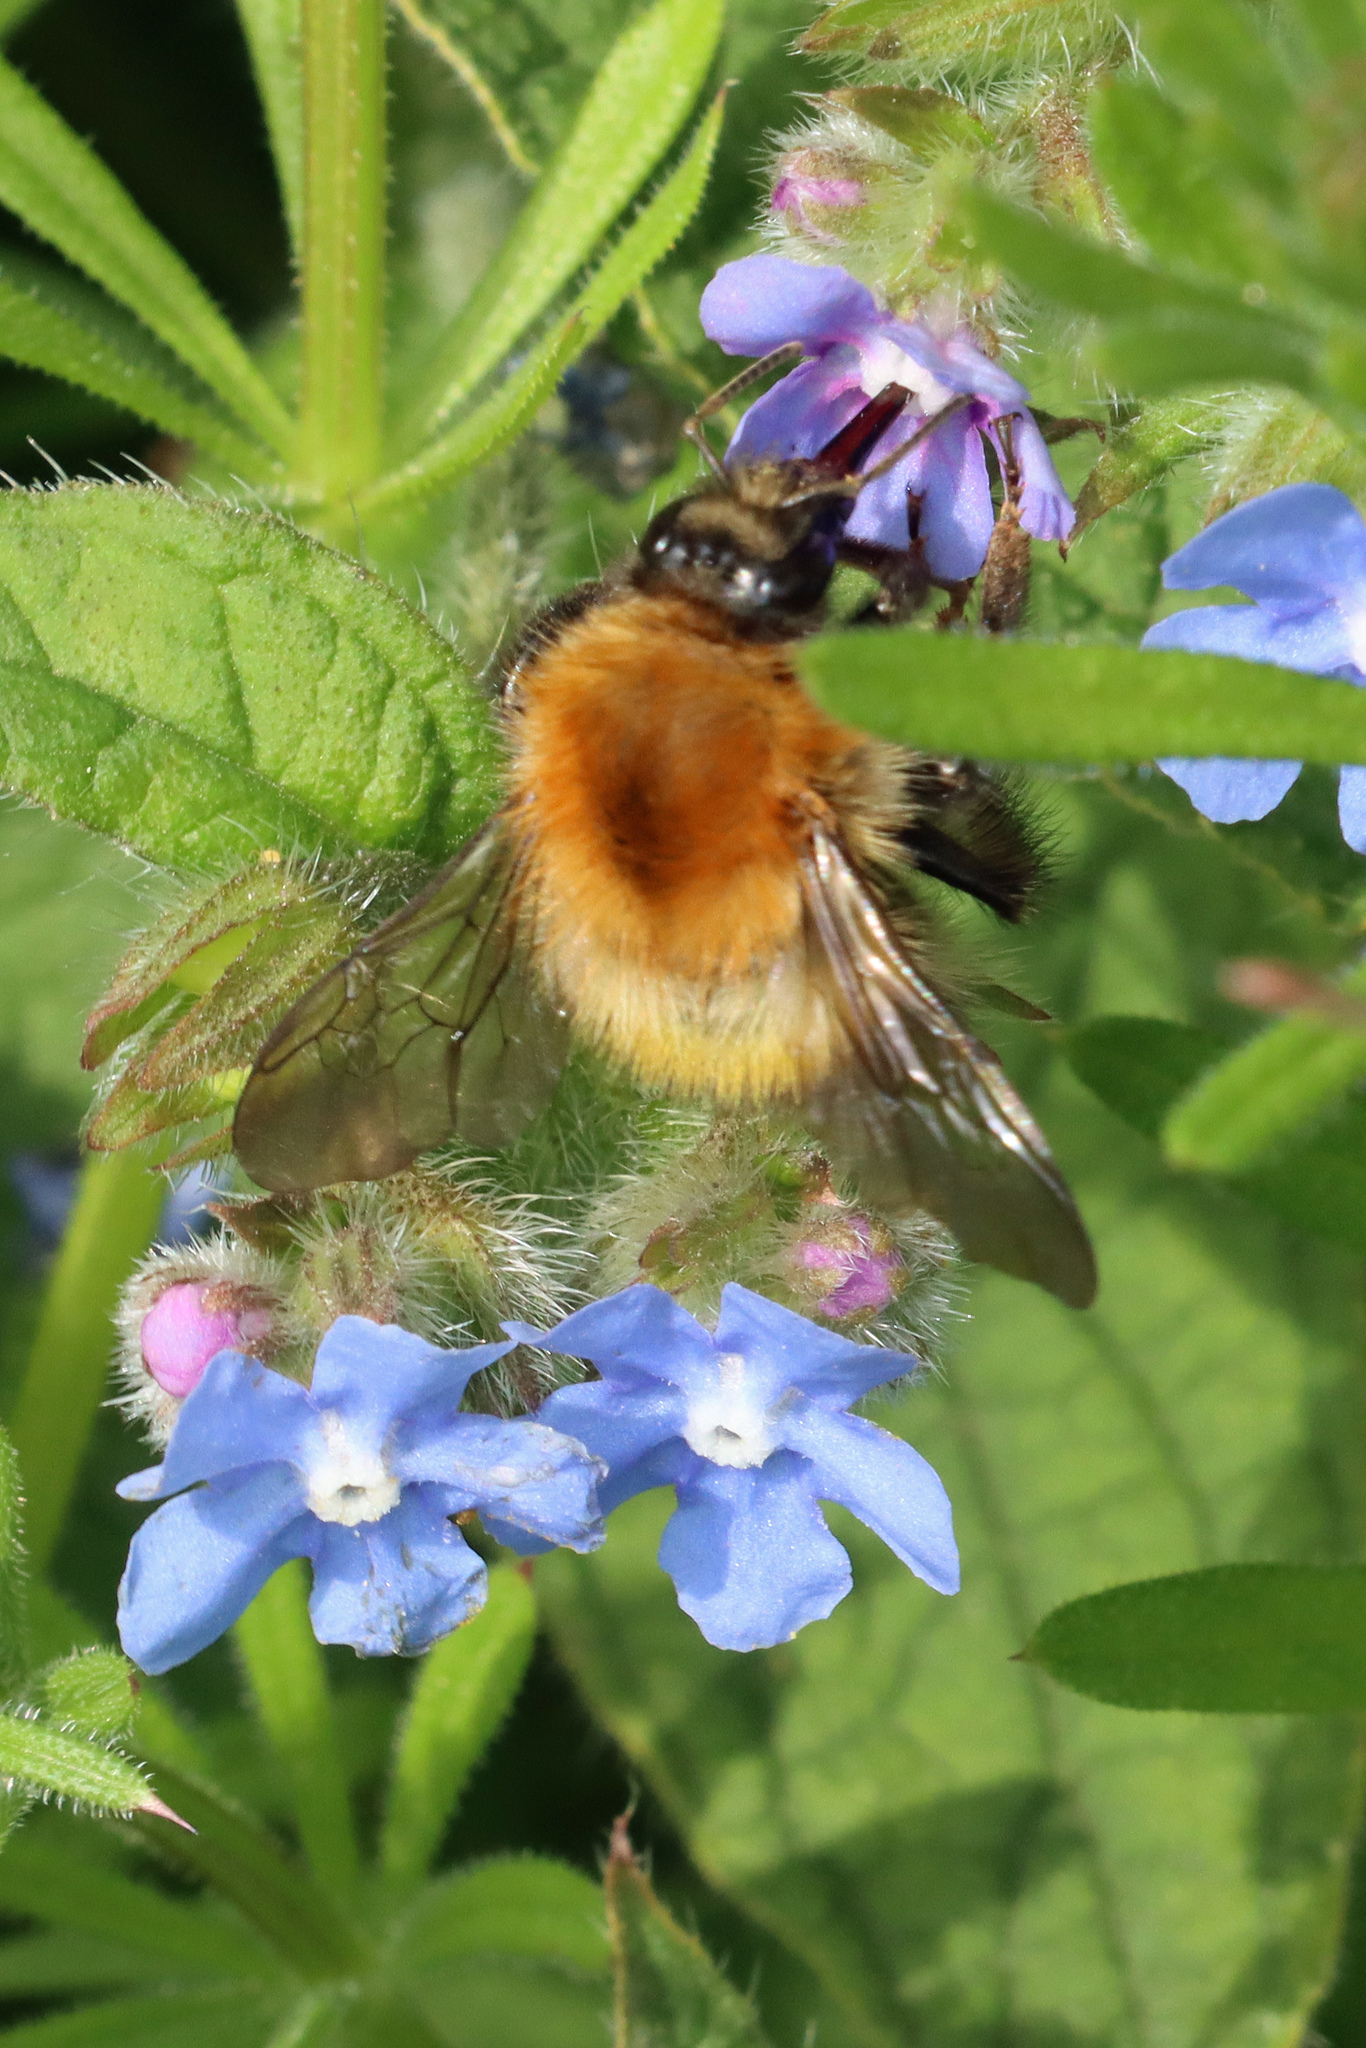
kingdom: Animalia
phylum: Arthropoda
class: Insecta
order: Hymenoptera
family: Apidae
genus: Bombus
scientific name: Bombus pascuorum
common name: Common carder bee
